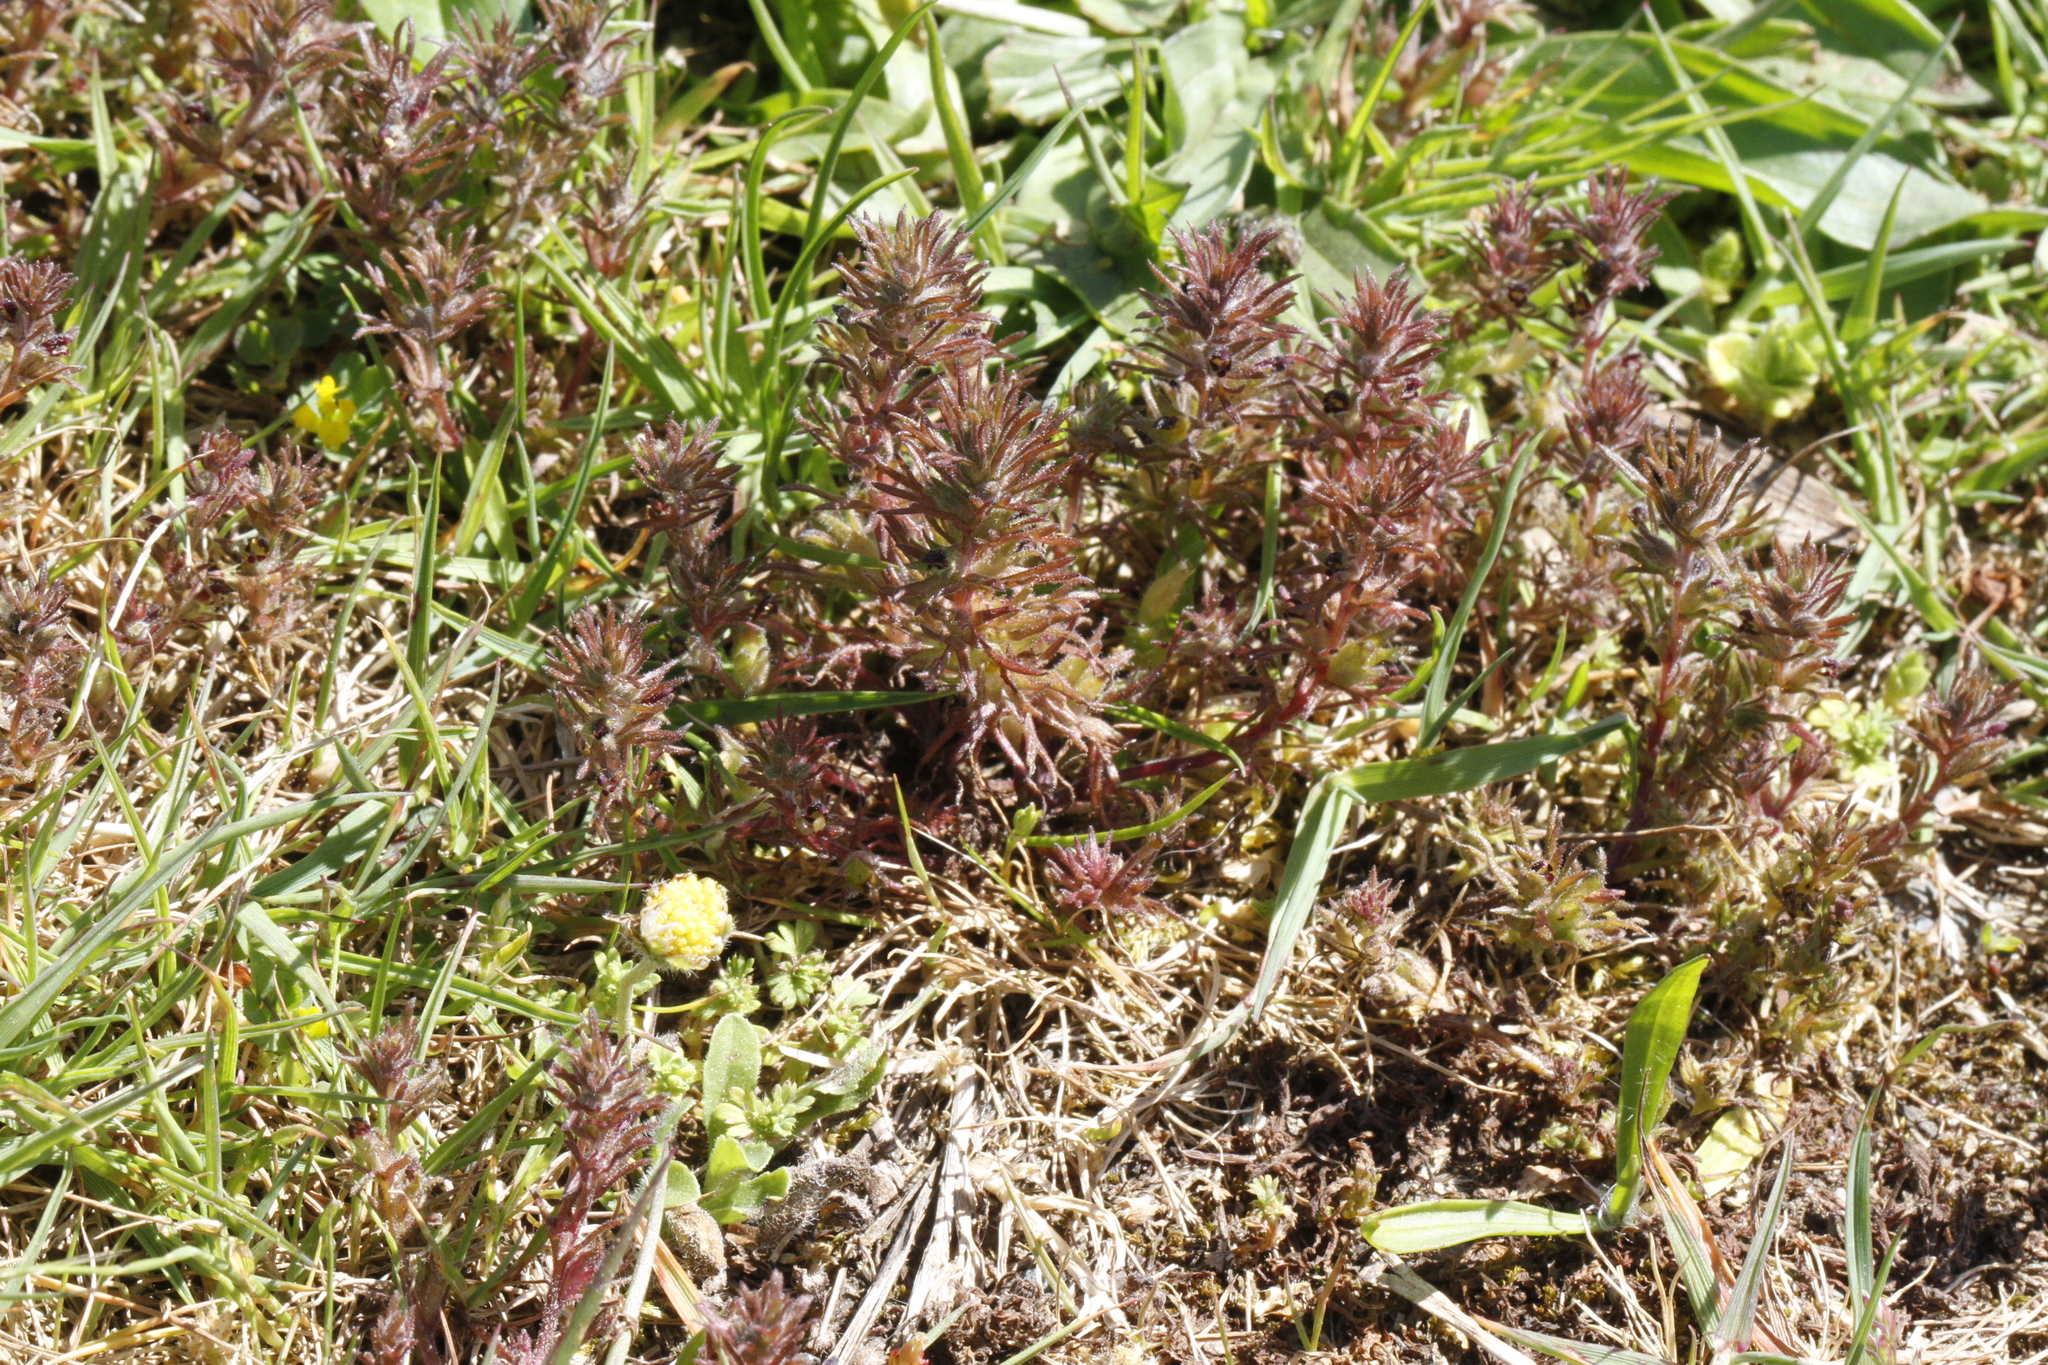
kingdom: Plantae
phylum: Tracheophyta
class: Magnoliopsida
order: Lamiales
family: Orobanchaceae
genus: Triphysaria
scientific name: Triphysaria pusilla
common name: Dwarf false owl-clover
